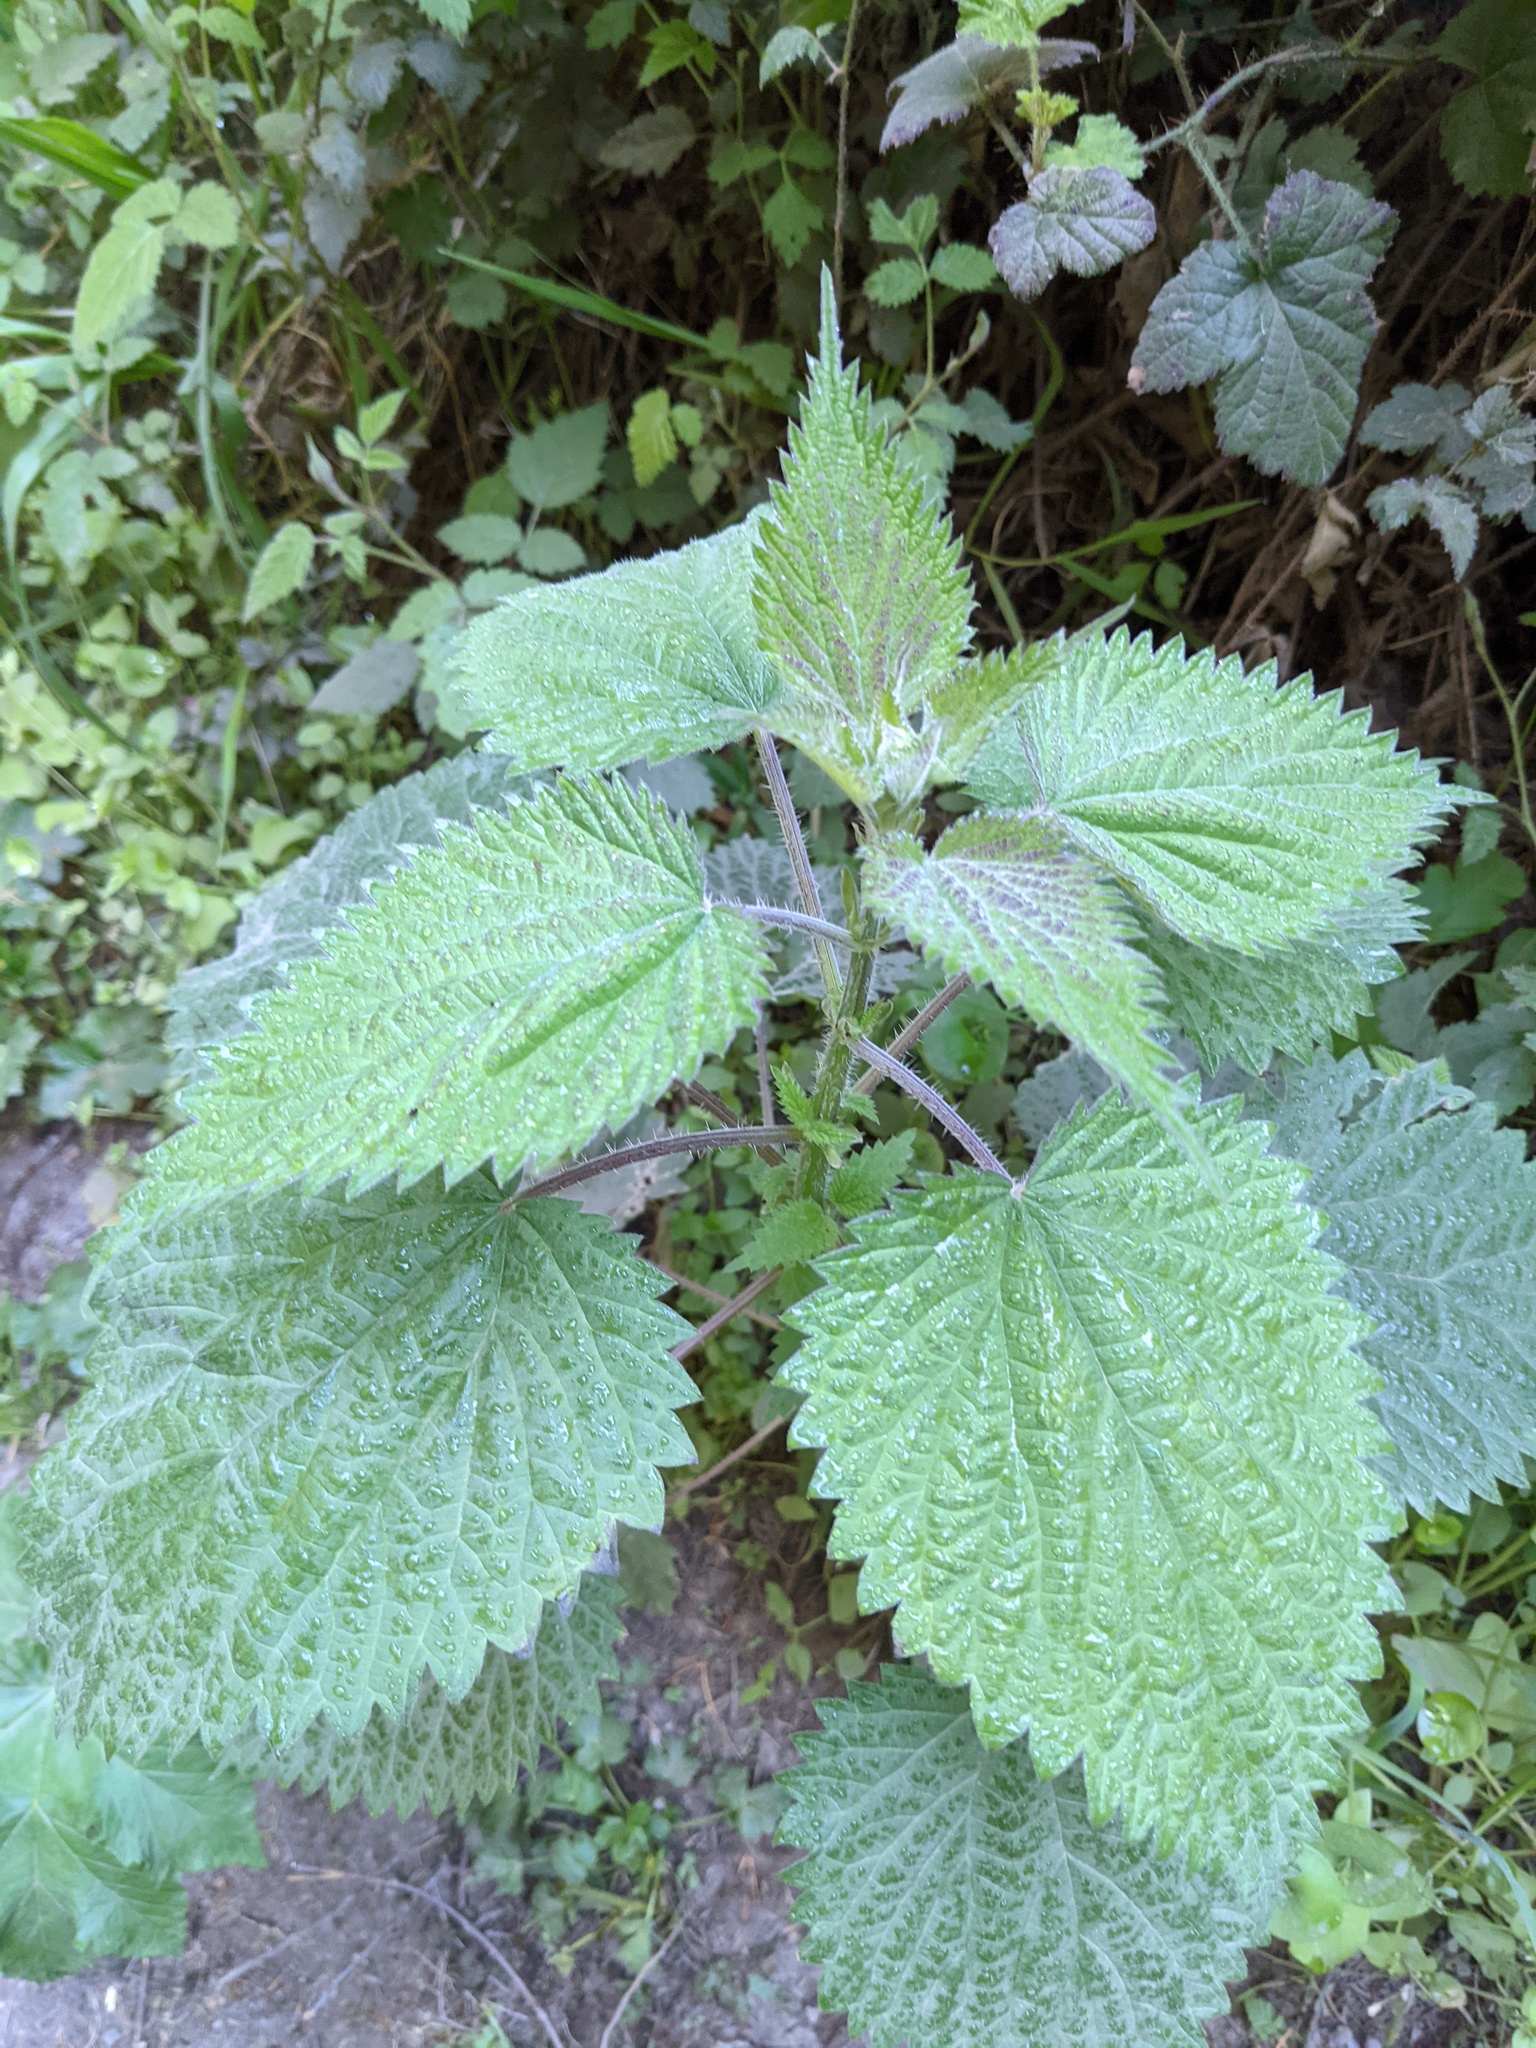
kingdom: Plantae
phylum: Tracheophyta
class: Magnoliopsida
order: Rosales
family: Urticaceae
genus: Urtica
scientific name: Urtica dioica
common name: Common nettle
